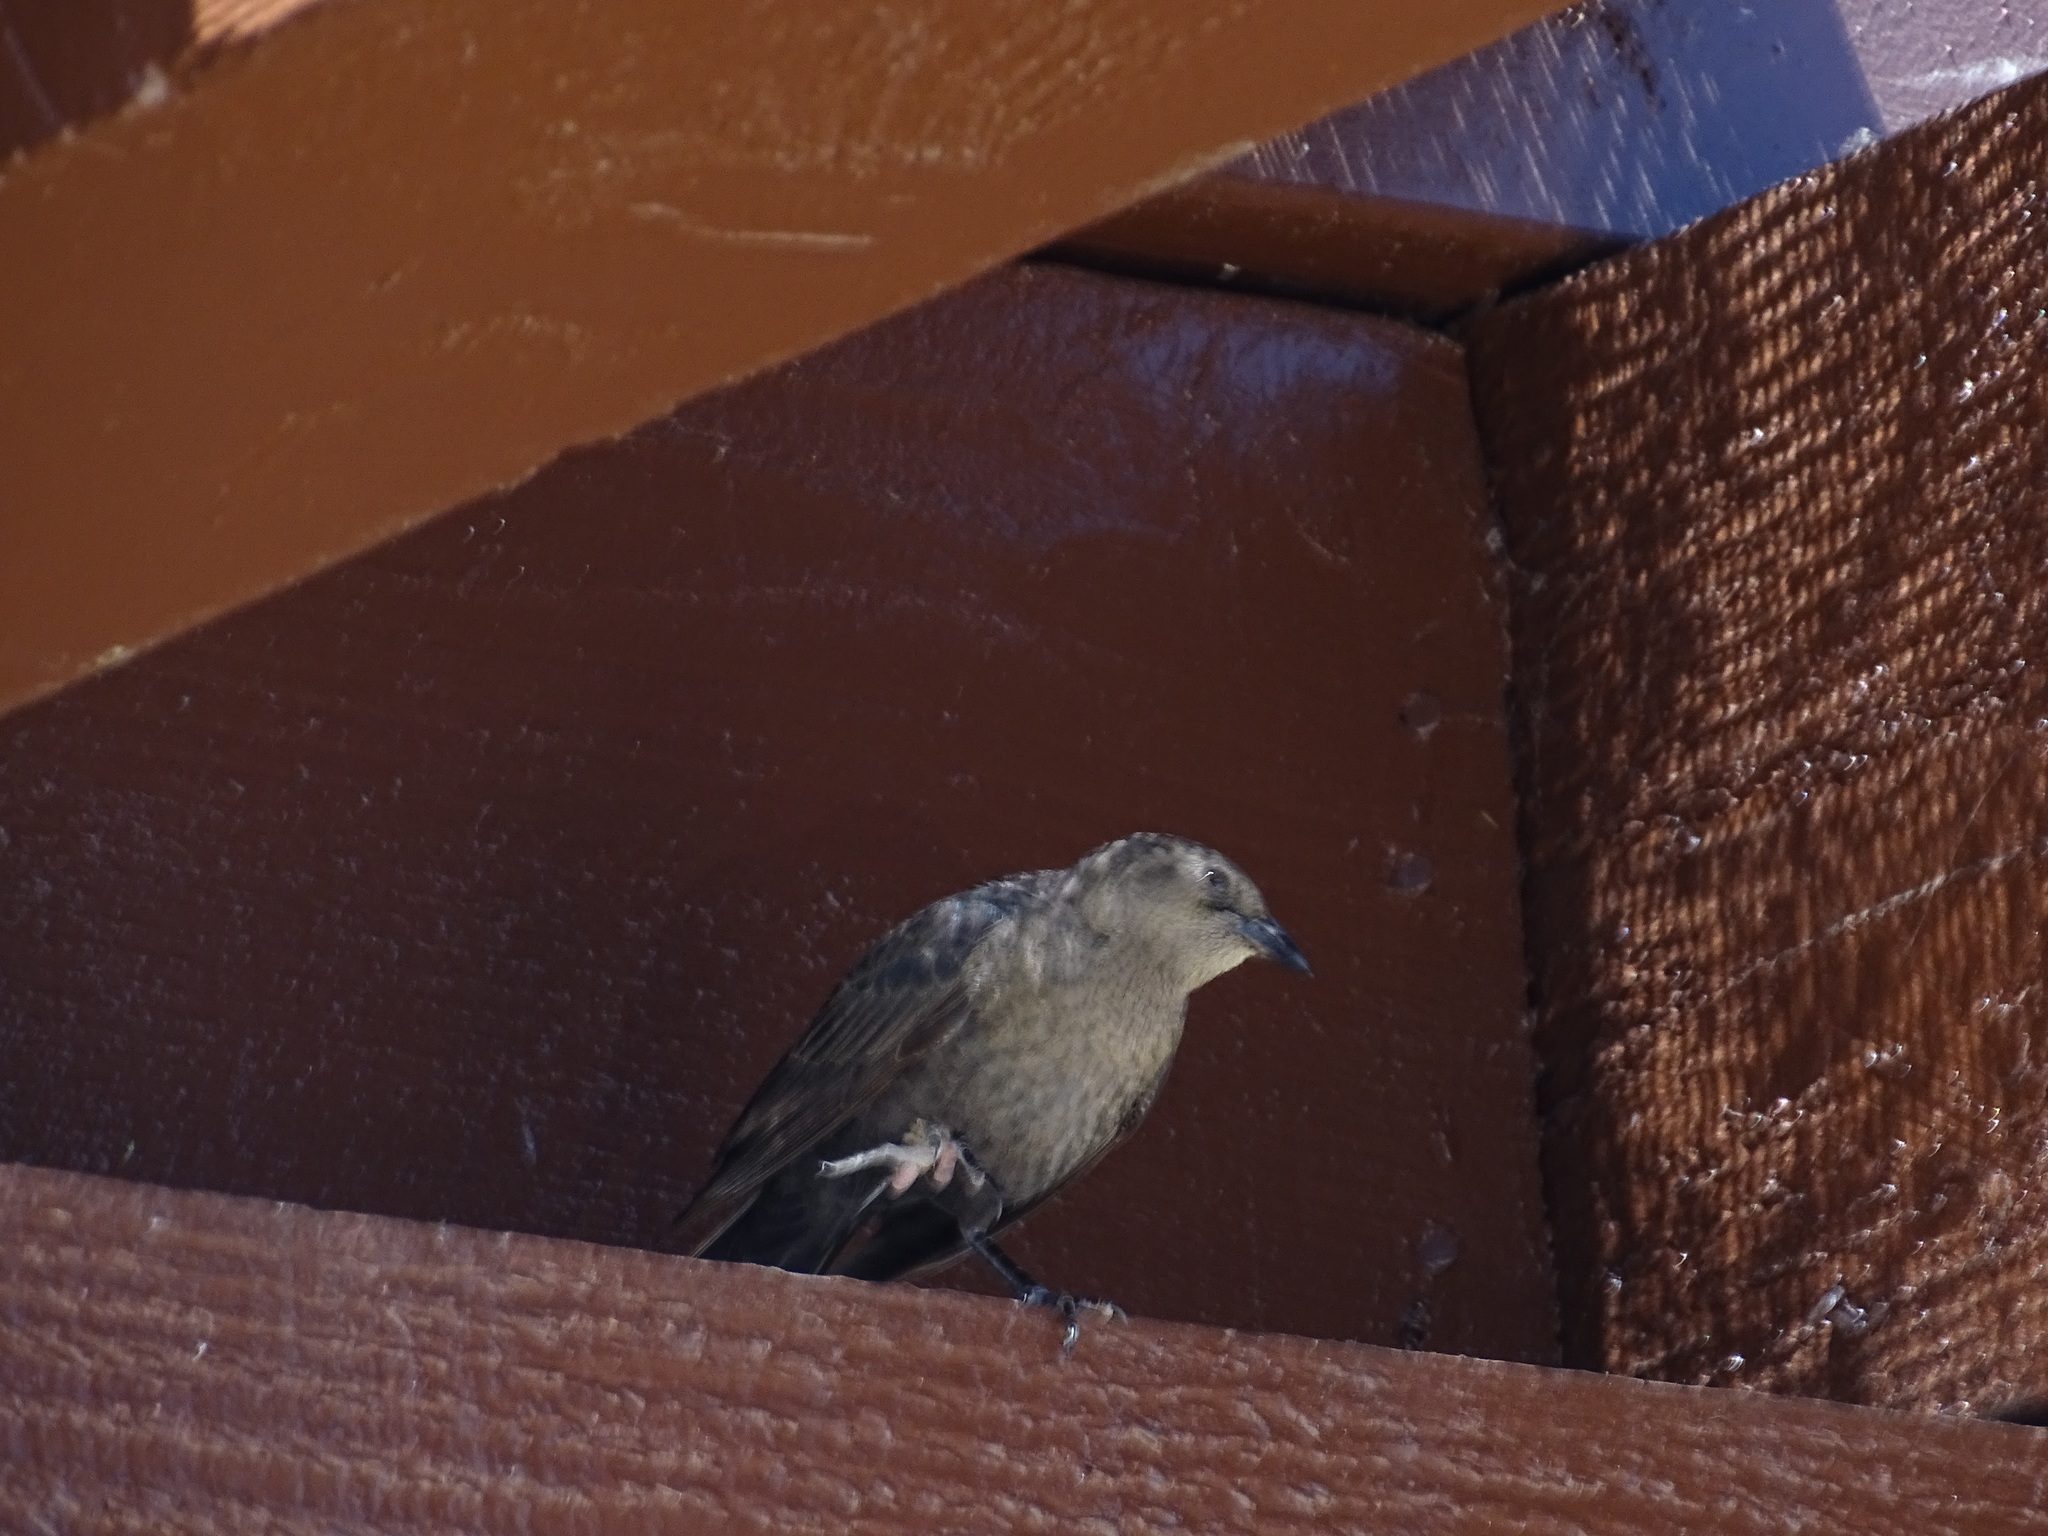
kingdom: Animalia
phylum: Chordata
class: Aves
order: Passeriformes
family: Icteridae
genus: Euphagus
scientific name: Euphagus cyanocephalus
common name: Brewer's blackbird
